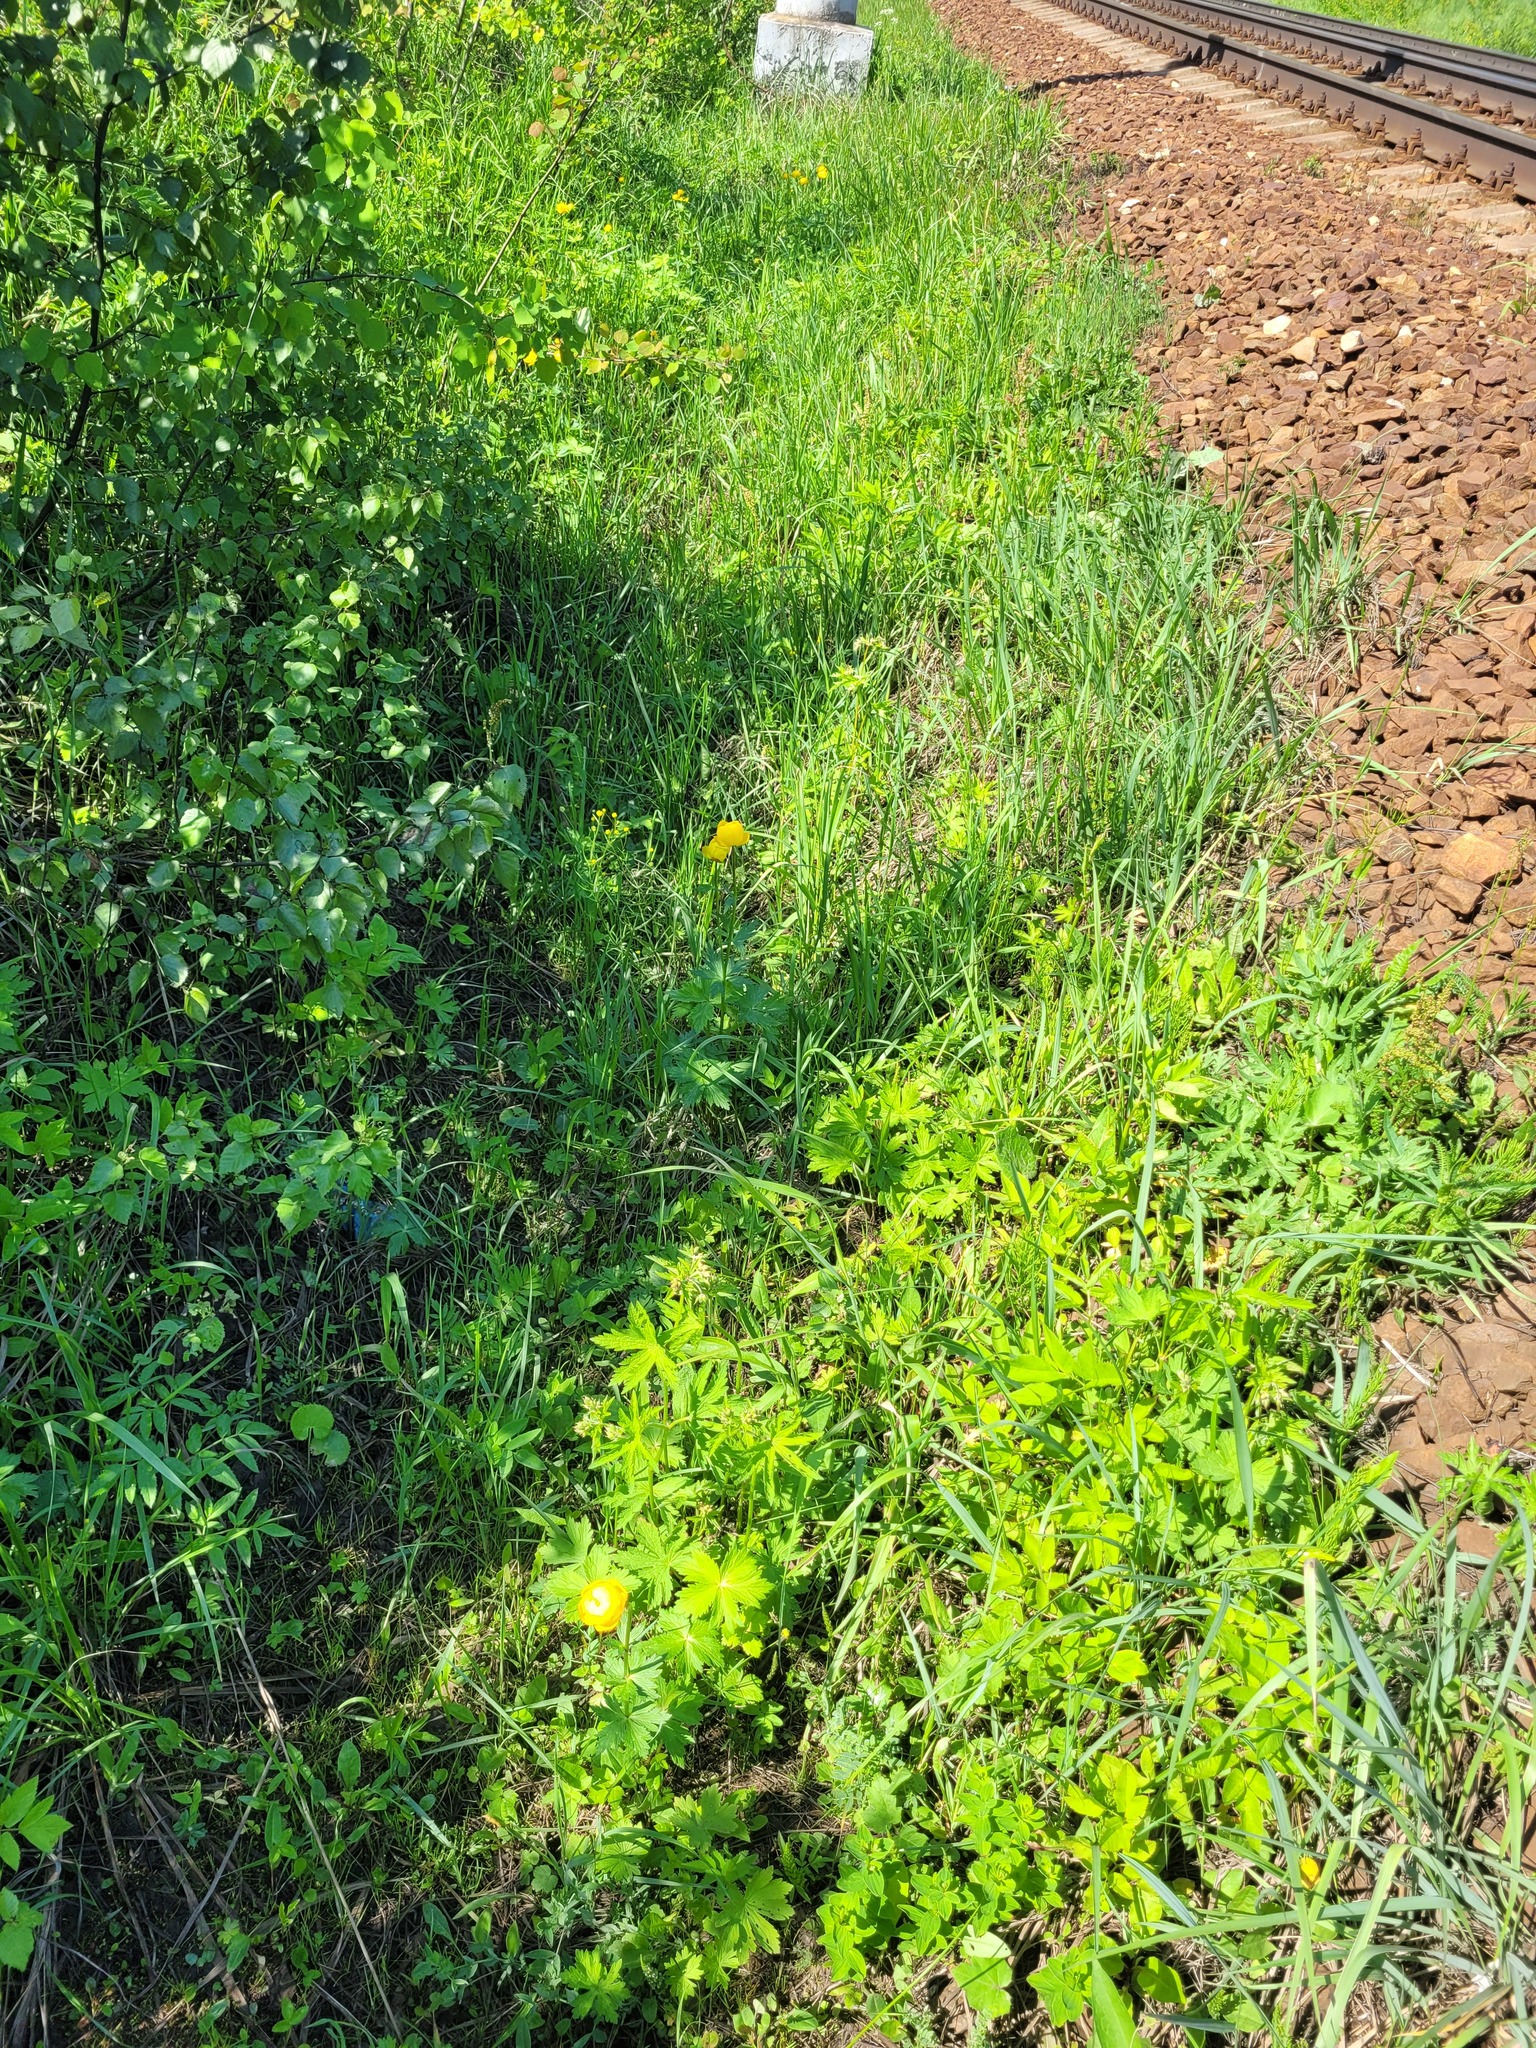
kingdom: Plantae
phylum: Tracheophyta
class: Magnoliopsida
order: Ranunculales
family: Ranunculaceae
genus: Trollius
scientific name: Trollius europaeus
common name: European globeflower
